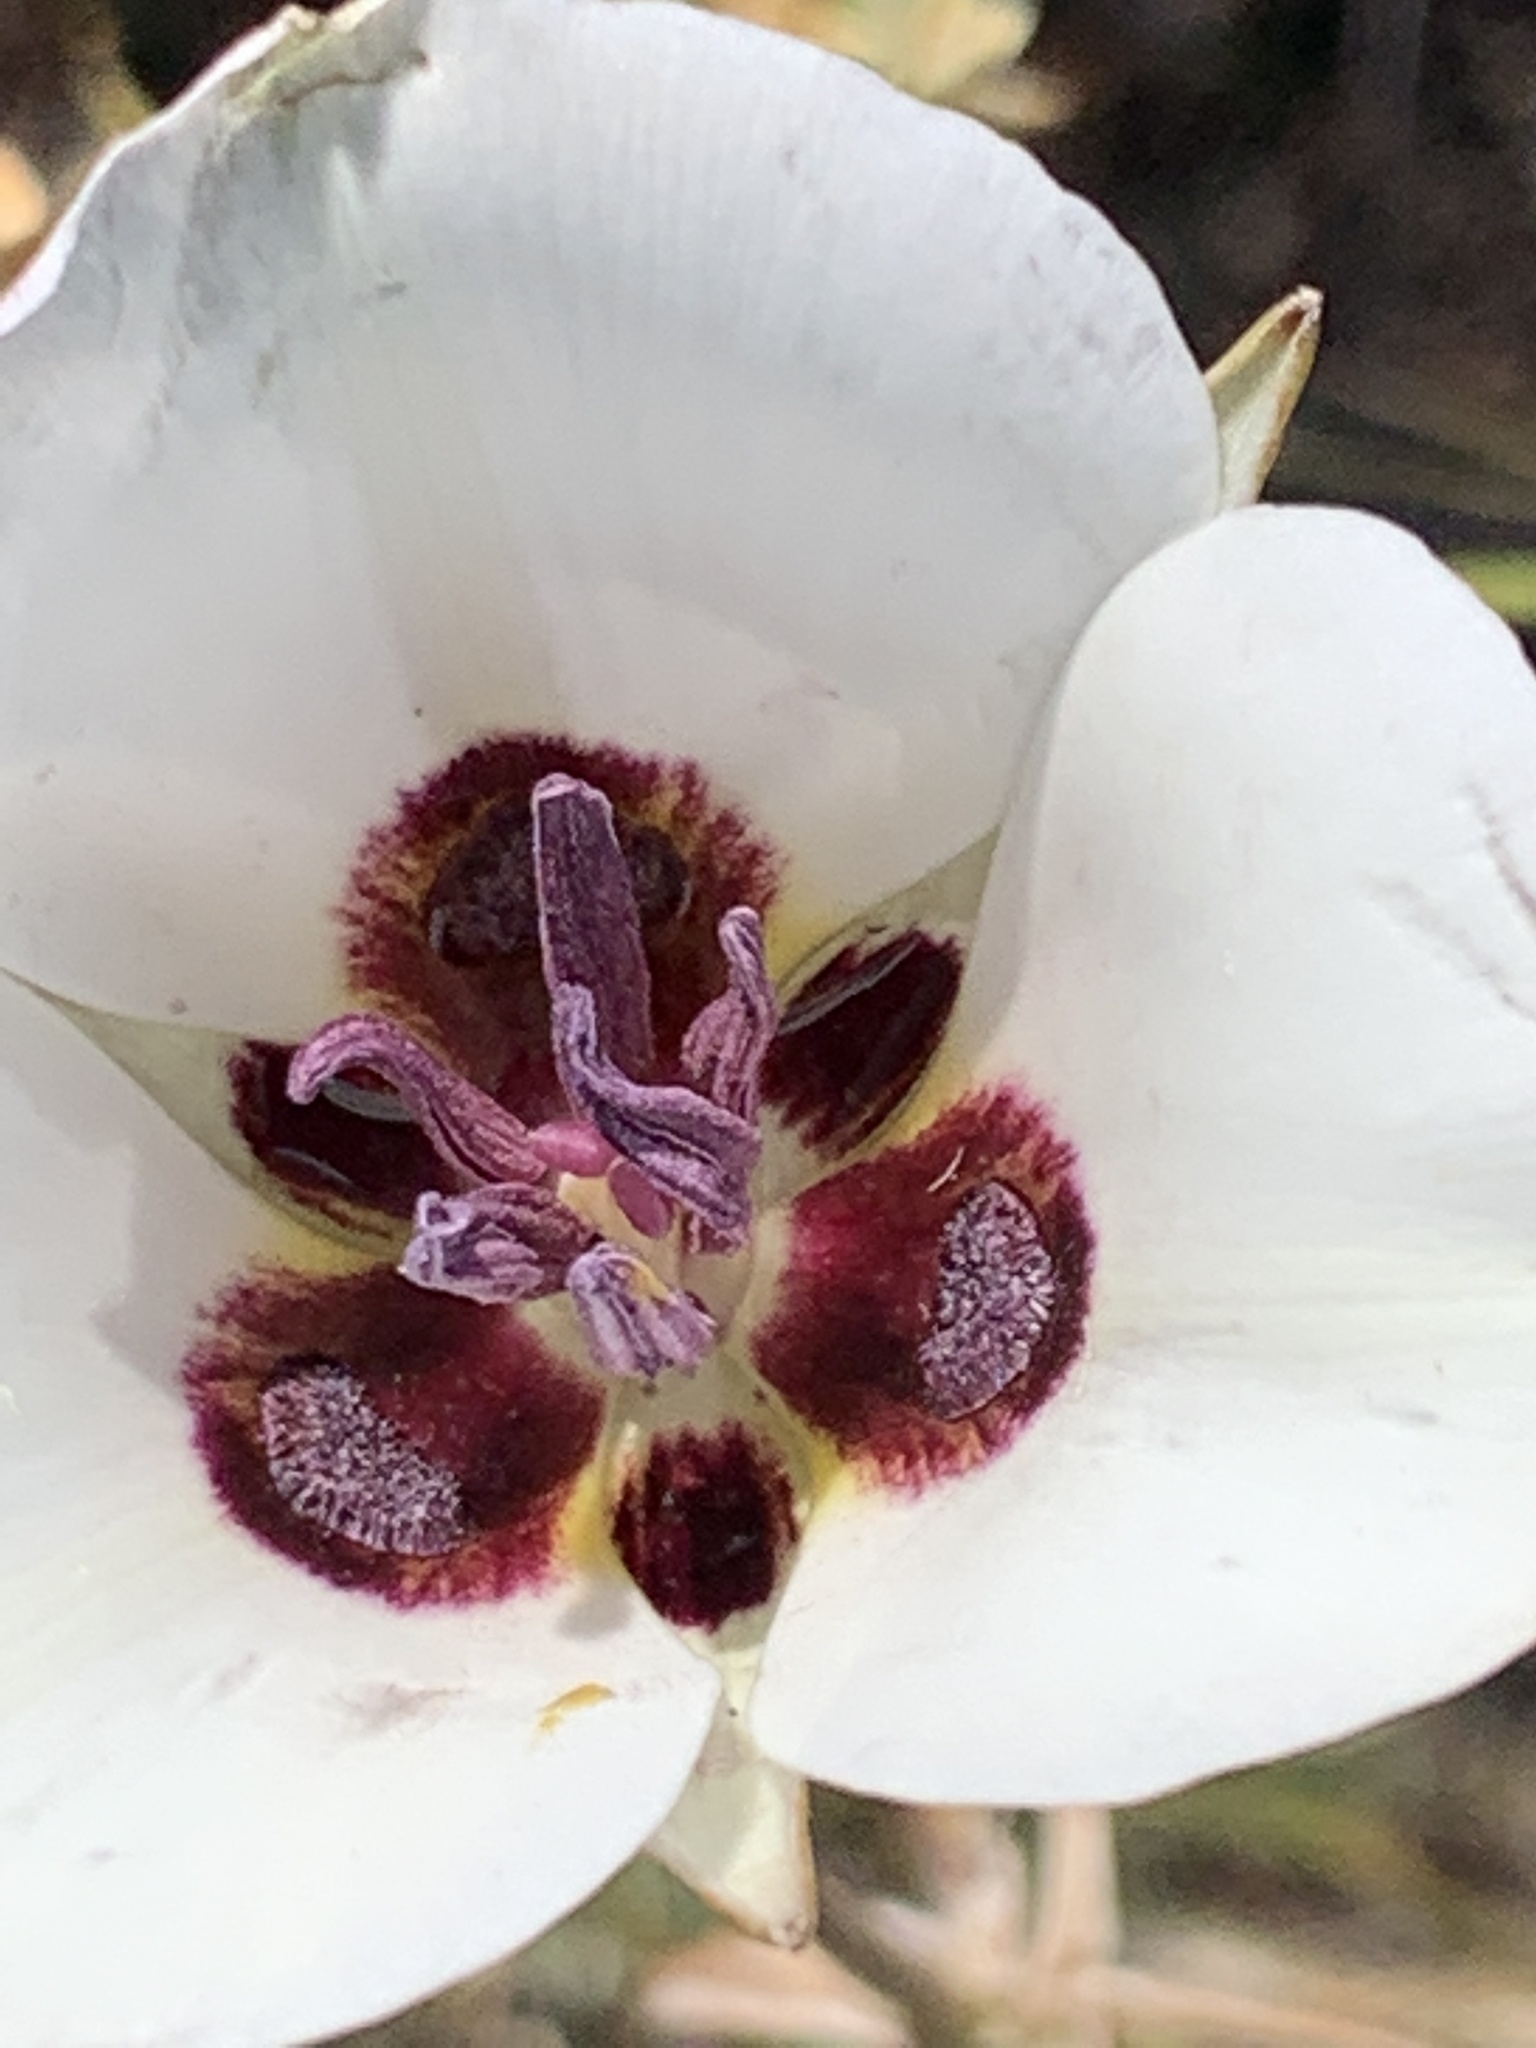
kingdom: Plantae
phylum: Tracheophyta
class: Liliopsida
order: Liliales
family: Liliaceae
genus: Calochortus
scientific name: Calochortus bruneaunis
